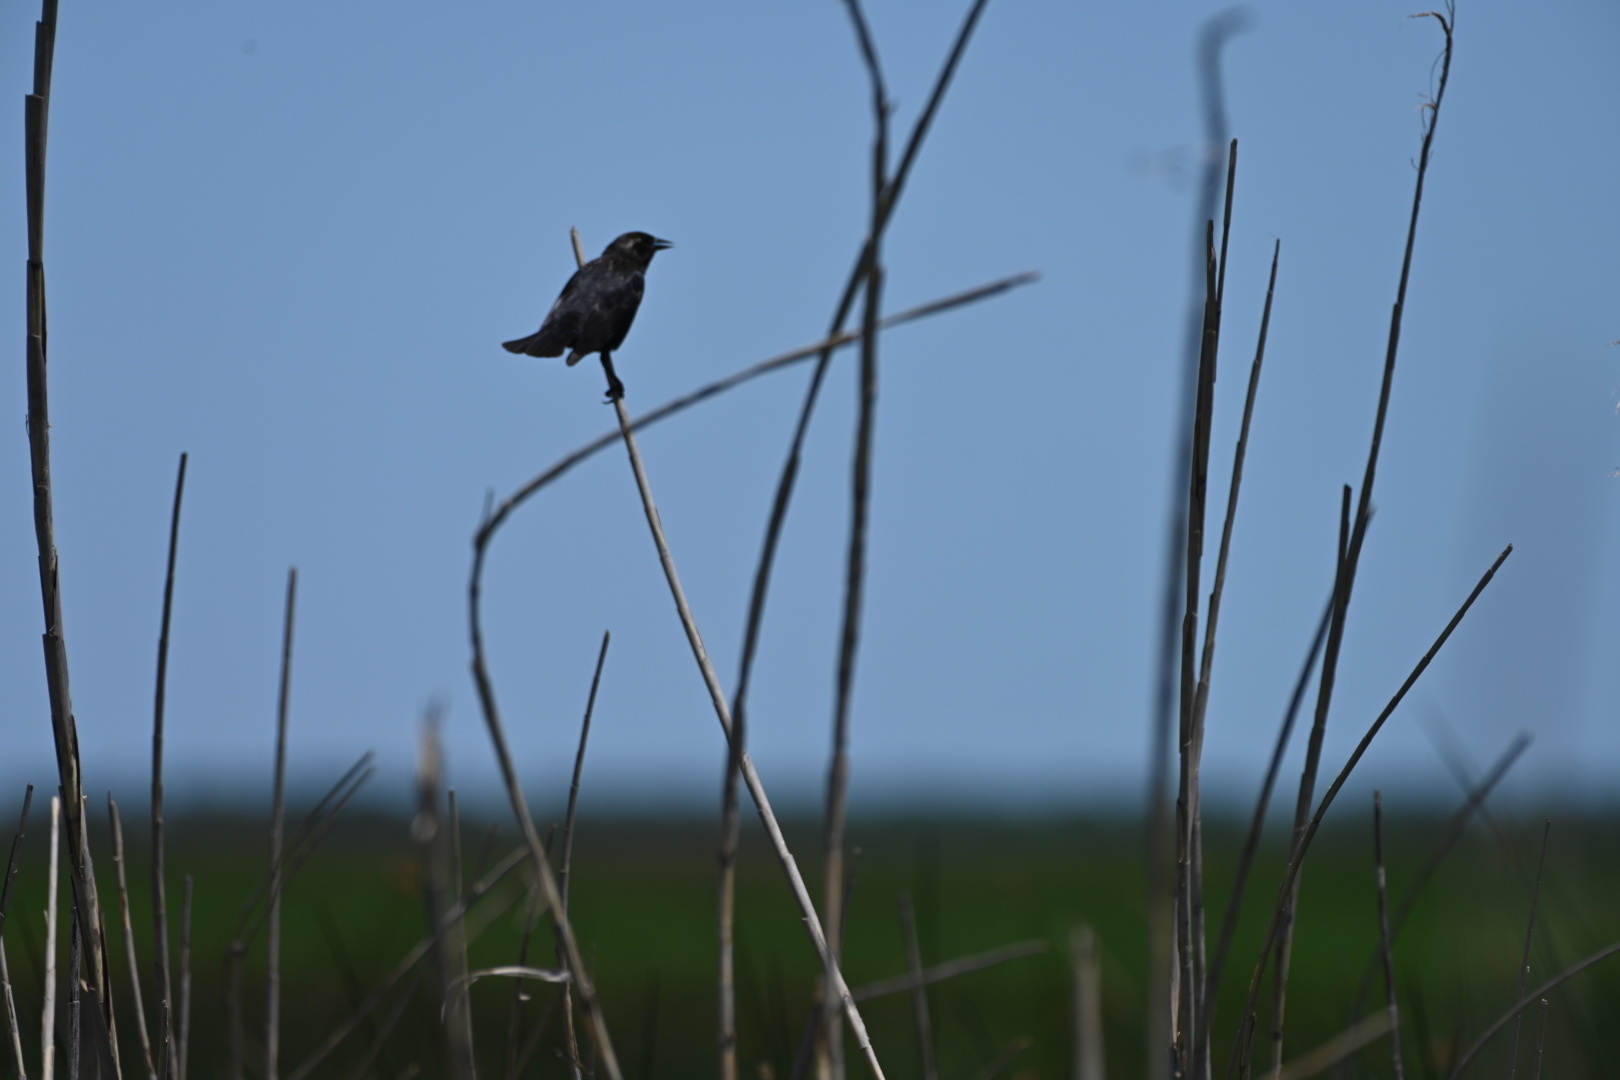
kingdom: Animalia
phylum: Chordata
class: Aves
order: Passeriformes
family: Icteridae
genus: Agelaius
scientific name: Agelaius phoeniceus
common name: Red-winged blackbird
